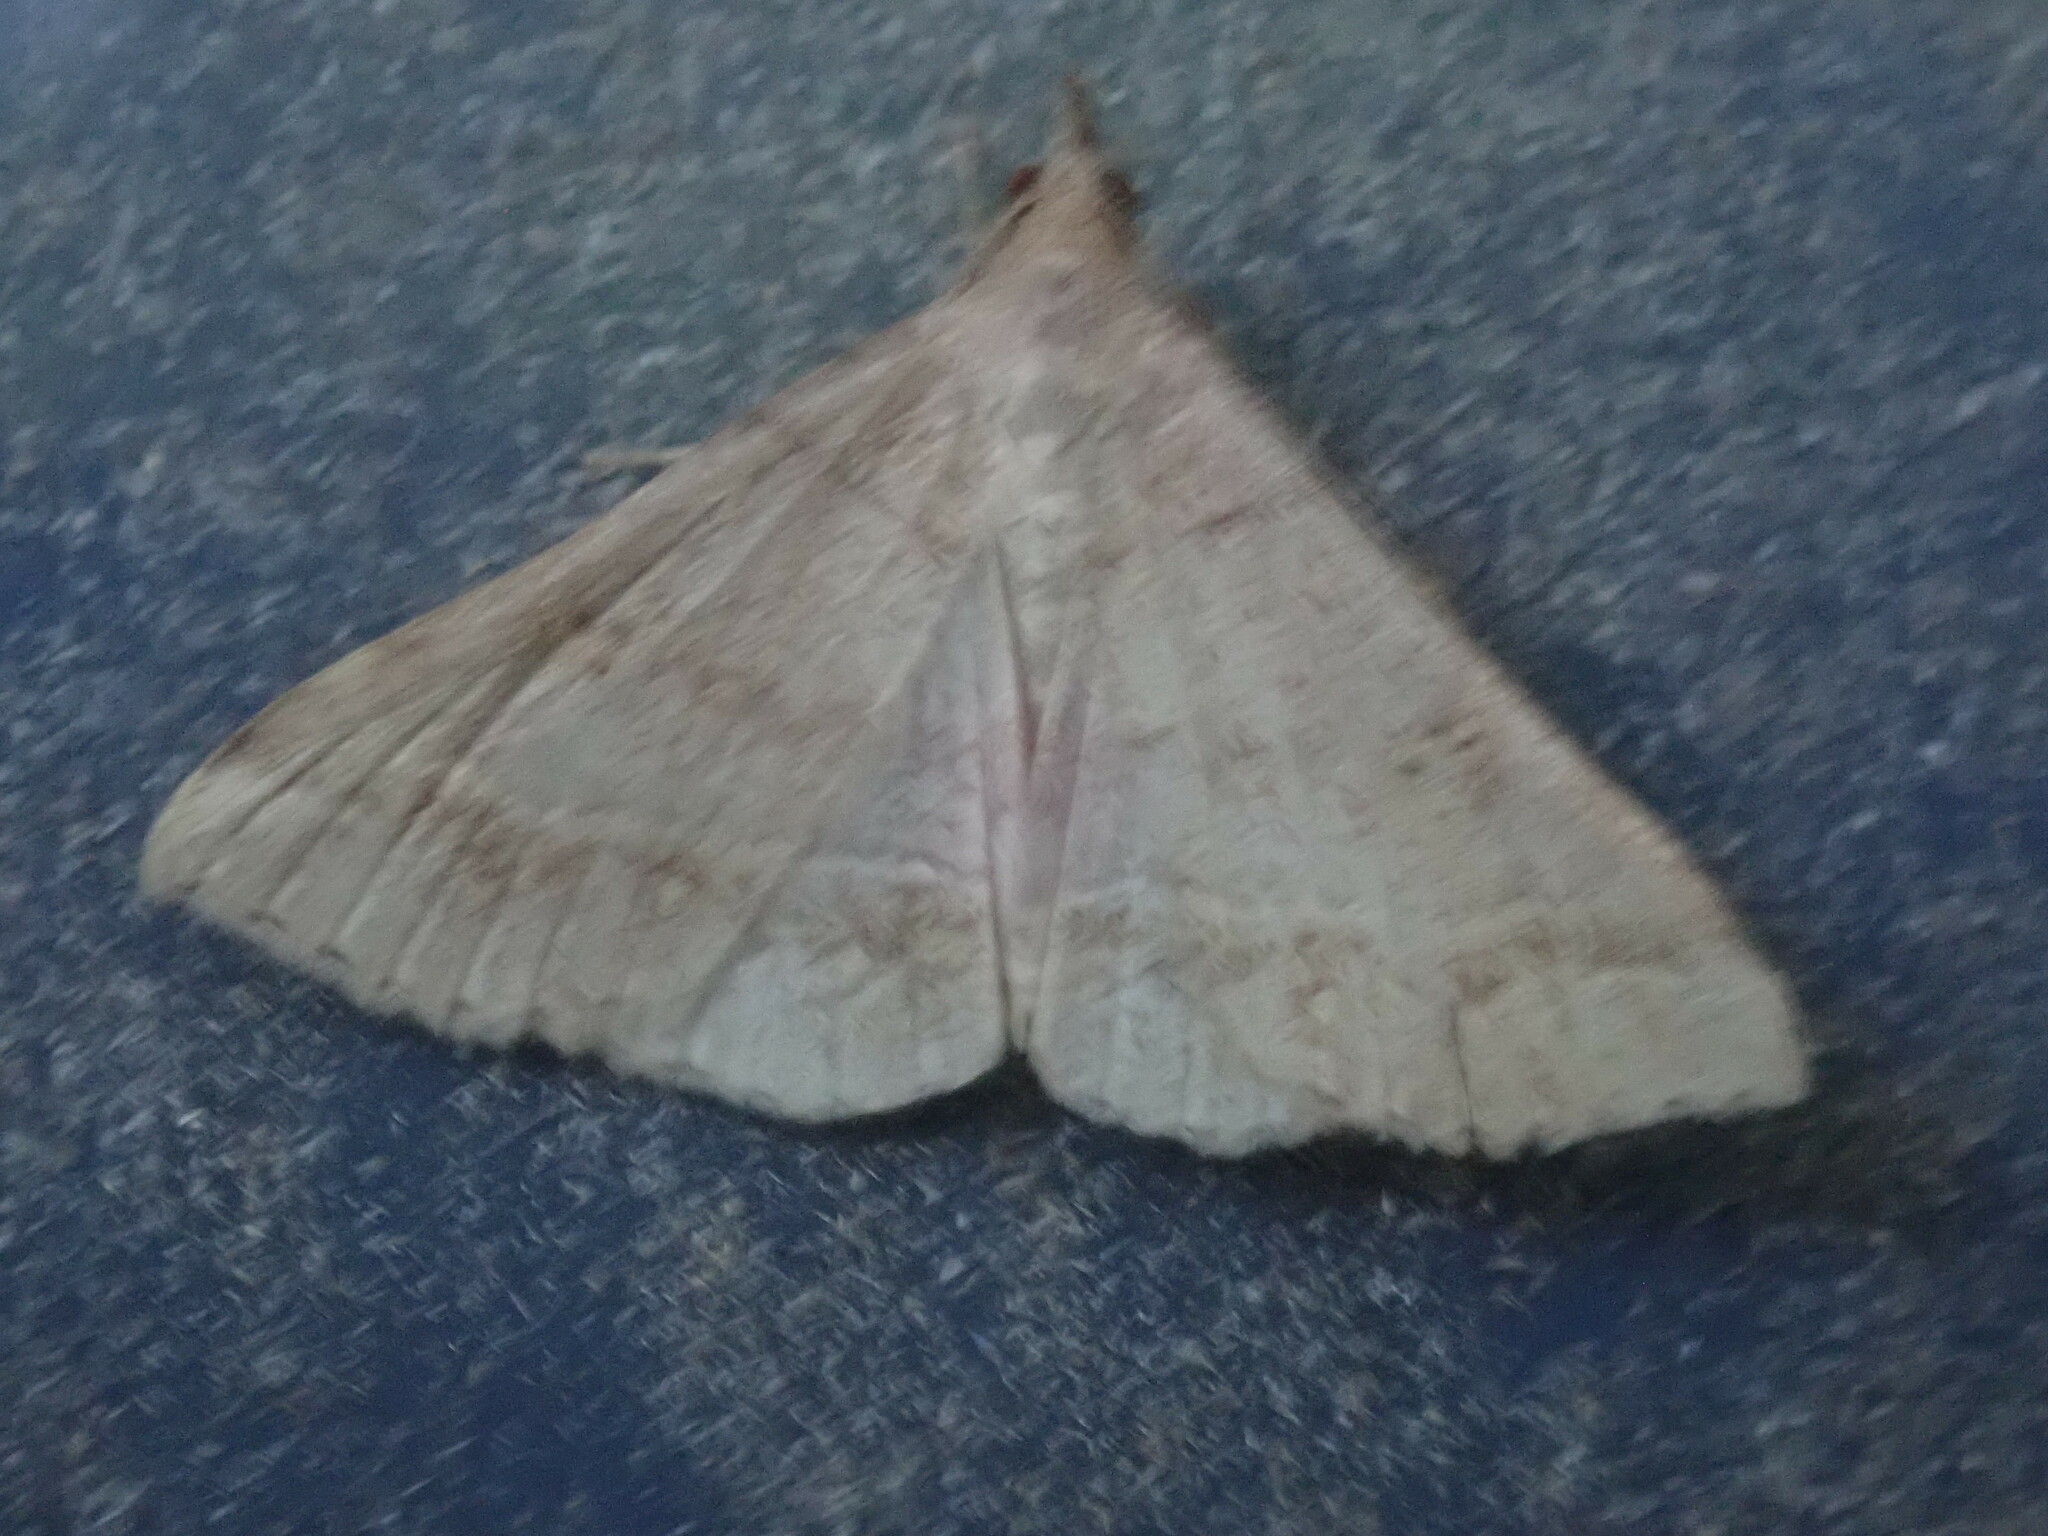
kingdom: Animalia
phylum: Arthropoda
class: Insecta
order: Lepidoptera
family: Erebidae
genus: Renia
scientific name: Renia flavipunctalis
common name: Yellow-spotted renia moth
